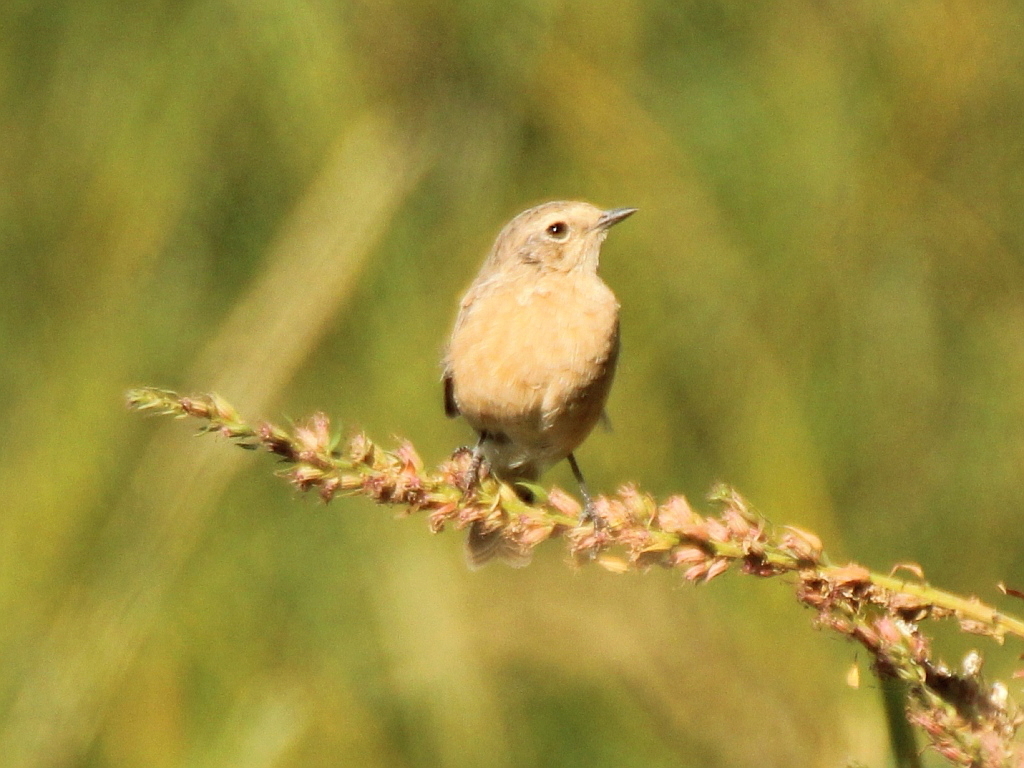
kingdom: Animalia
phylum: Chordata
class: Aves
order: Passeriformes
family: Muscicapidae
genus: Saxicola
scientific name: Saxicola maurus
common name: Siberian stonechat
